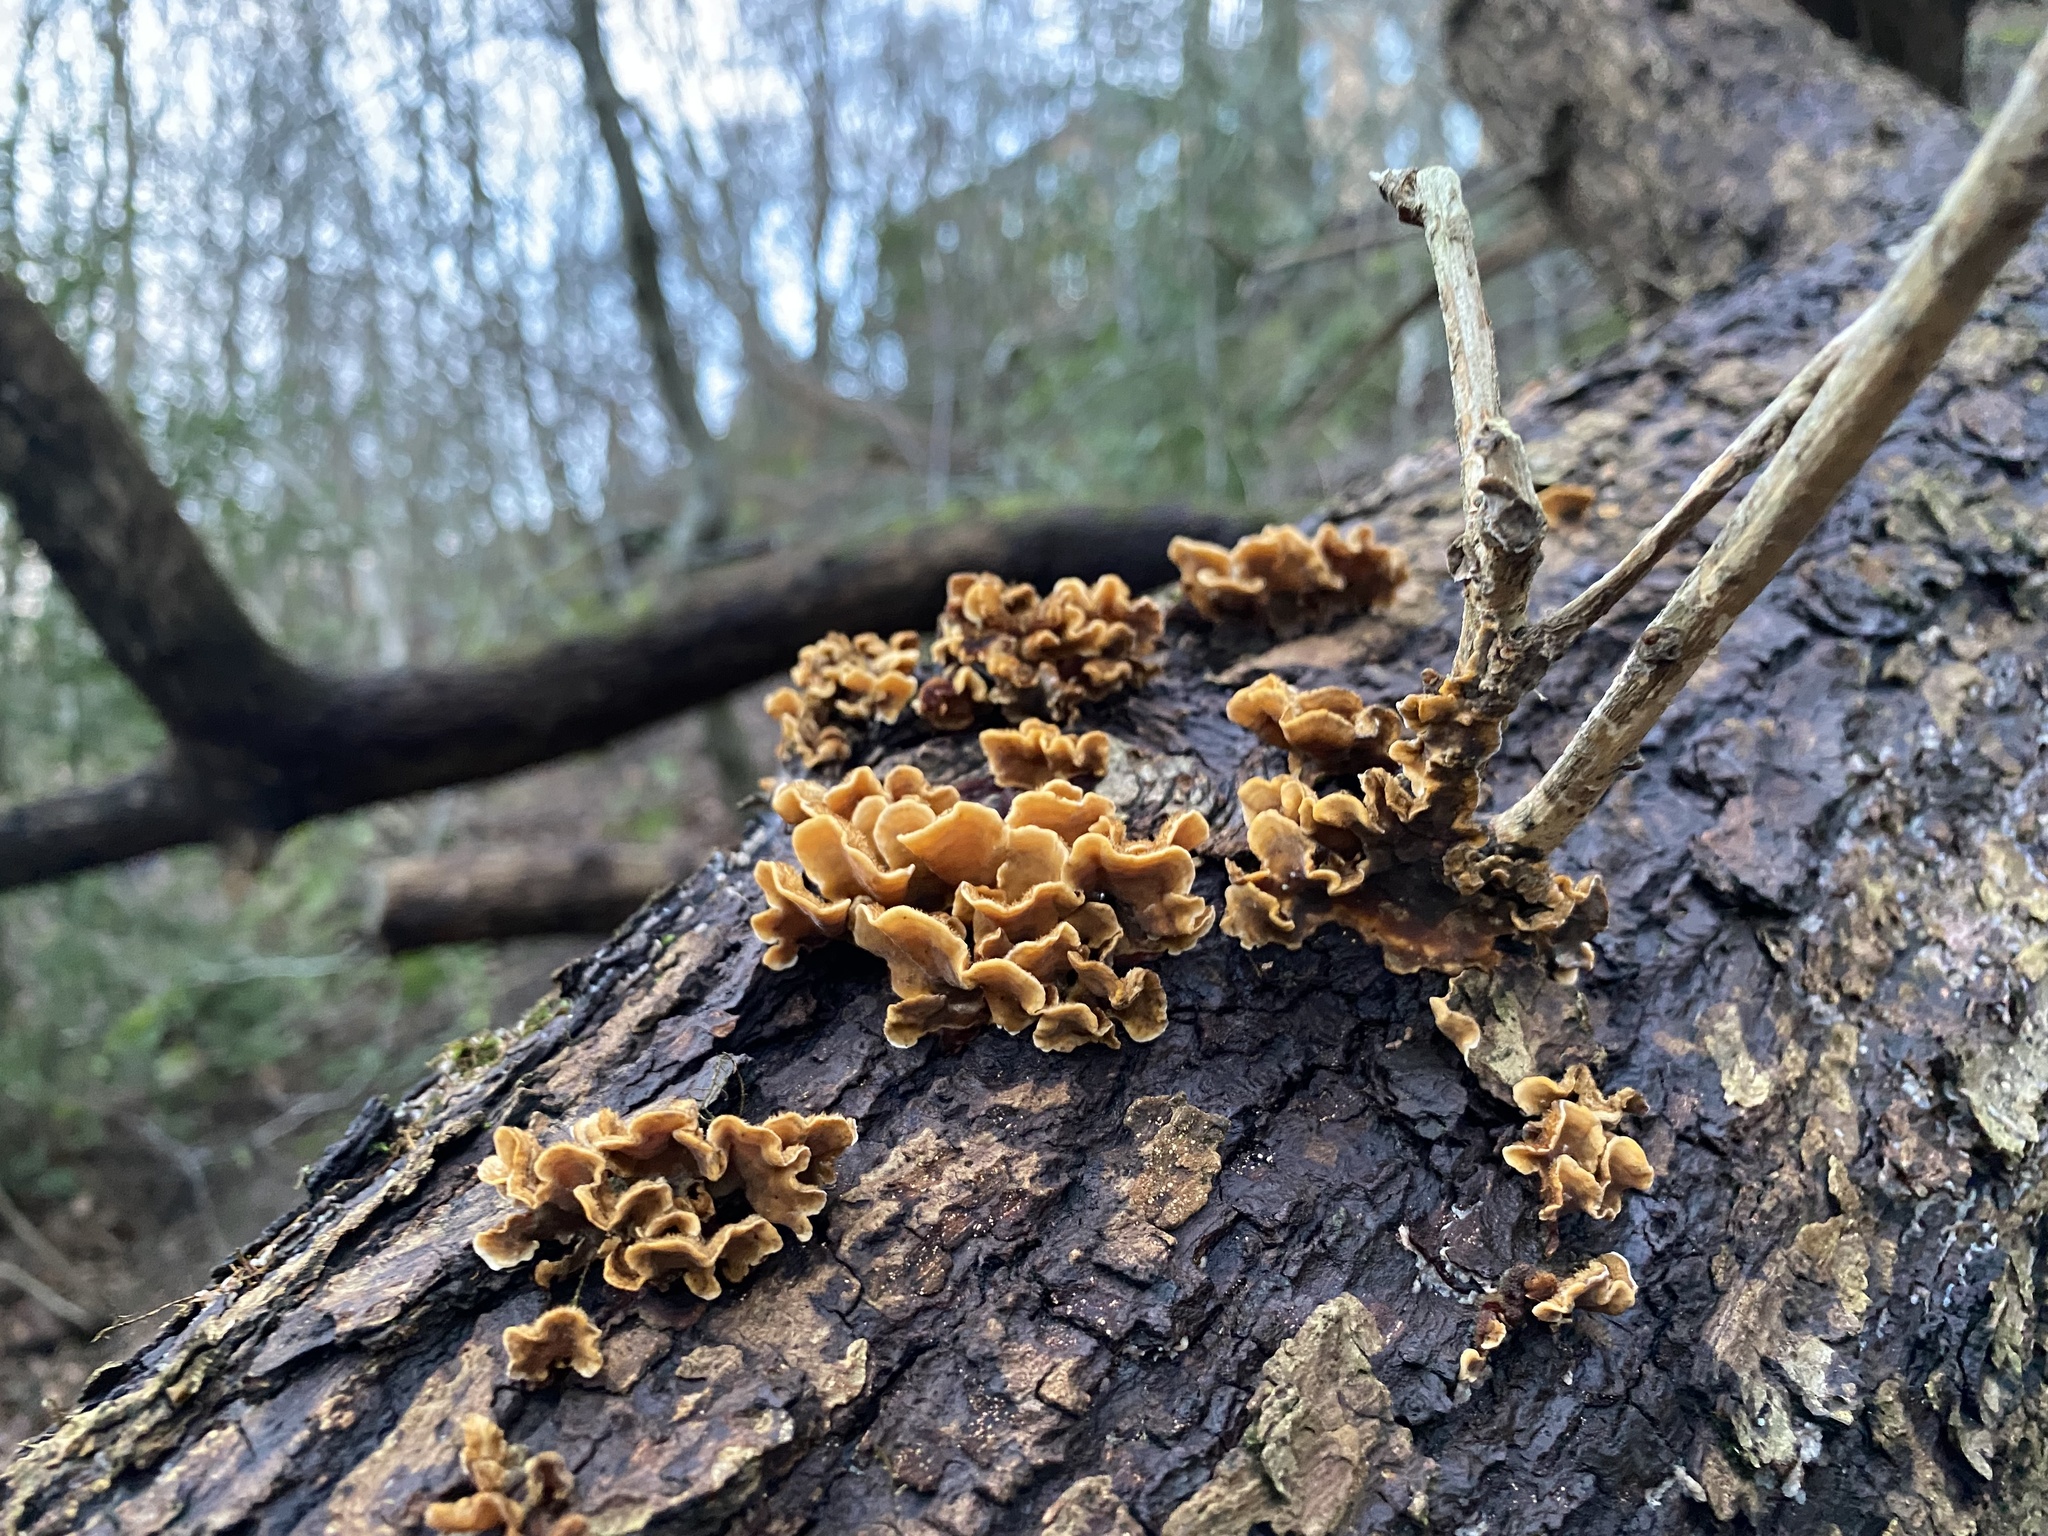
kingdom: Fungi
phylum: Basidiomycota
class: Agaricomycetes
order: Russulales
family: Stereaceae
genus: Stereum
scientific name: Stereum hirsutum
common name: Hairy curtain crust
